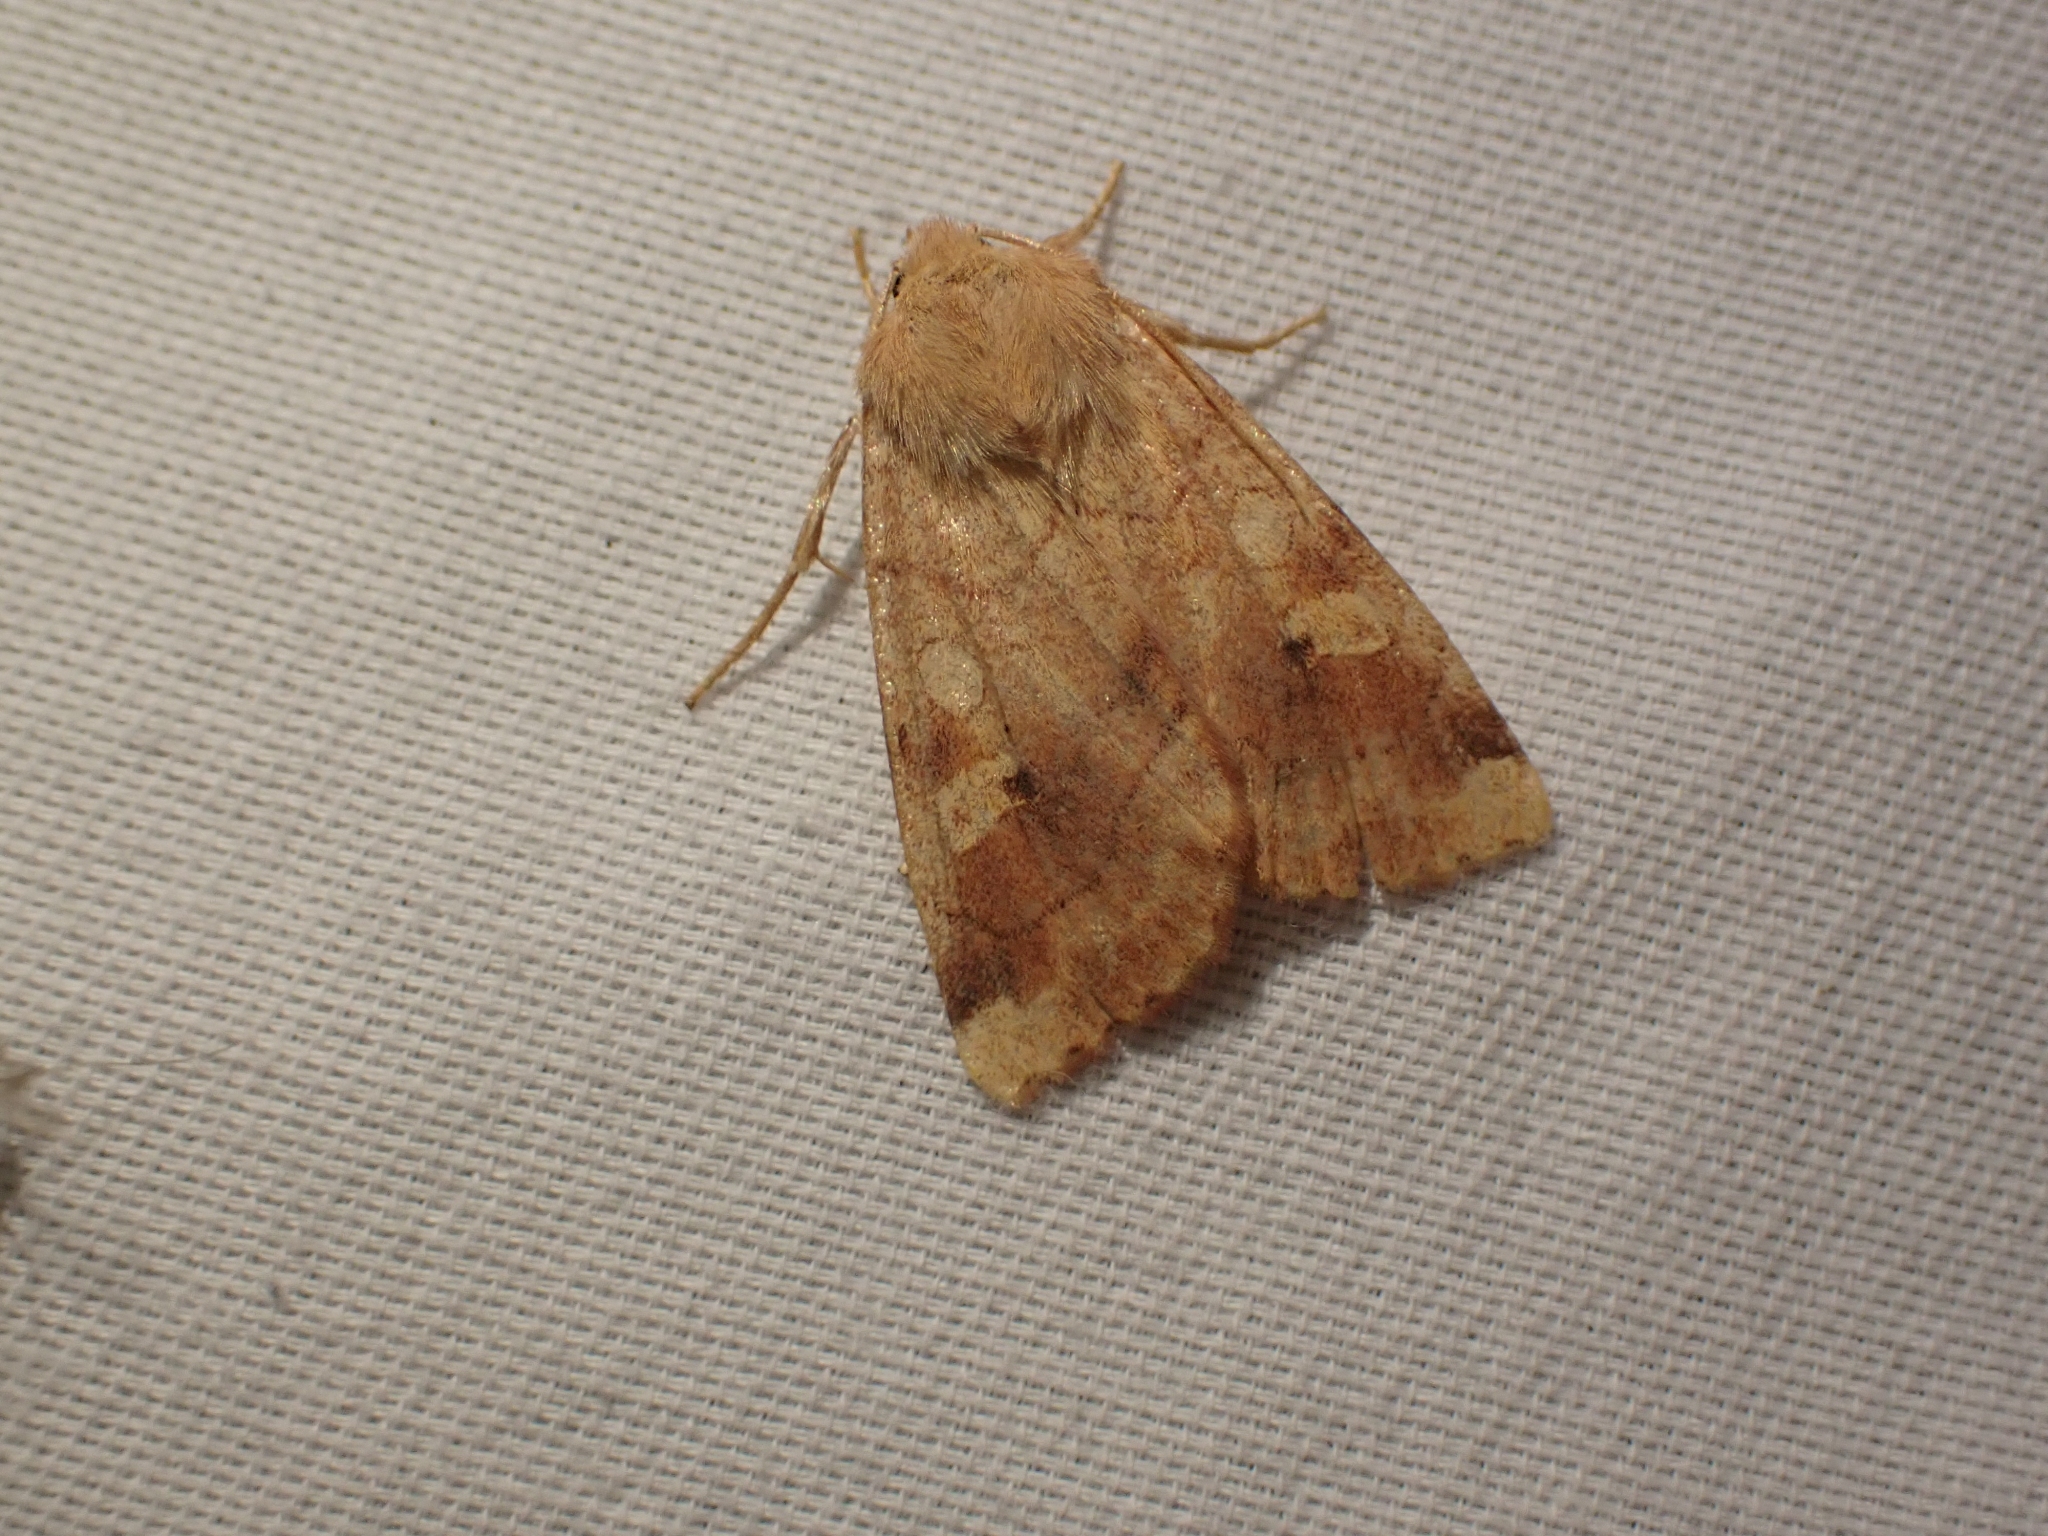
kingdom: Animalia
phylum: Arthropoda
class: Insecta
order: Lepidoptera
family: Noctuidae
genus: Enargia
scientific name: Enargia infumata
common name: Smoked sallow
